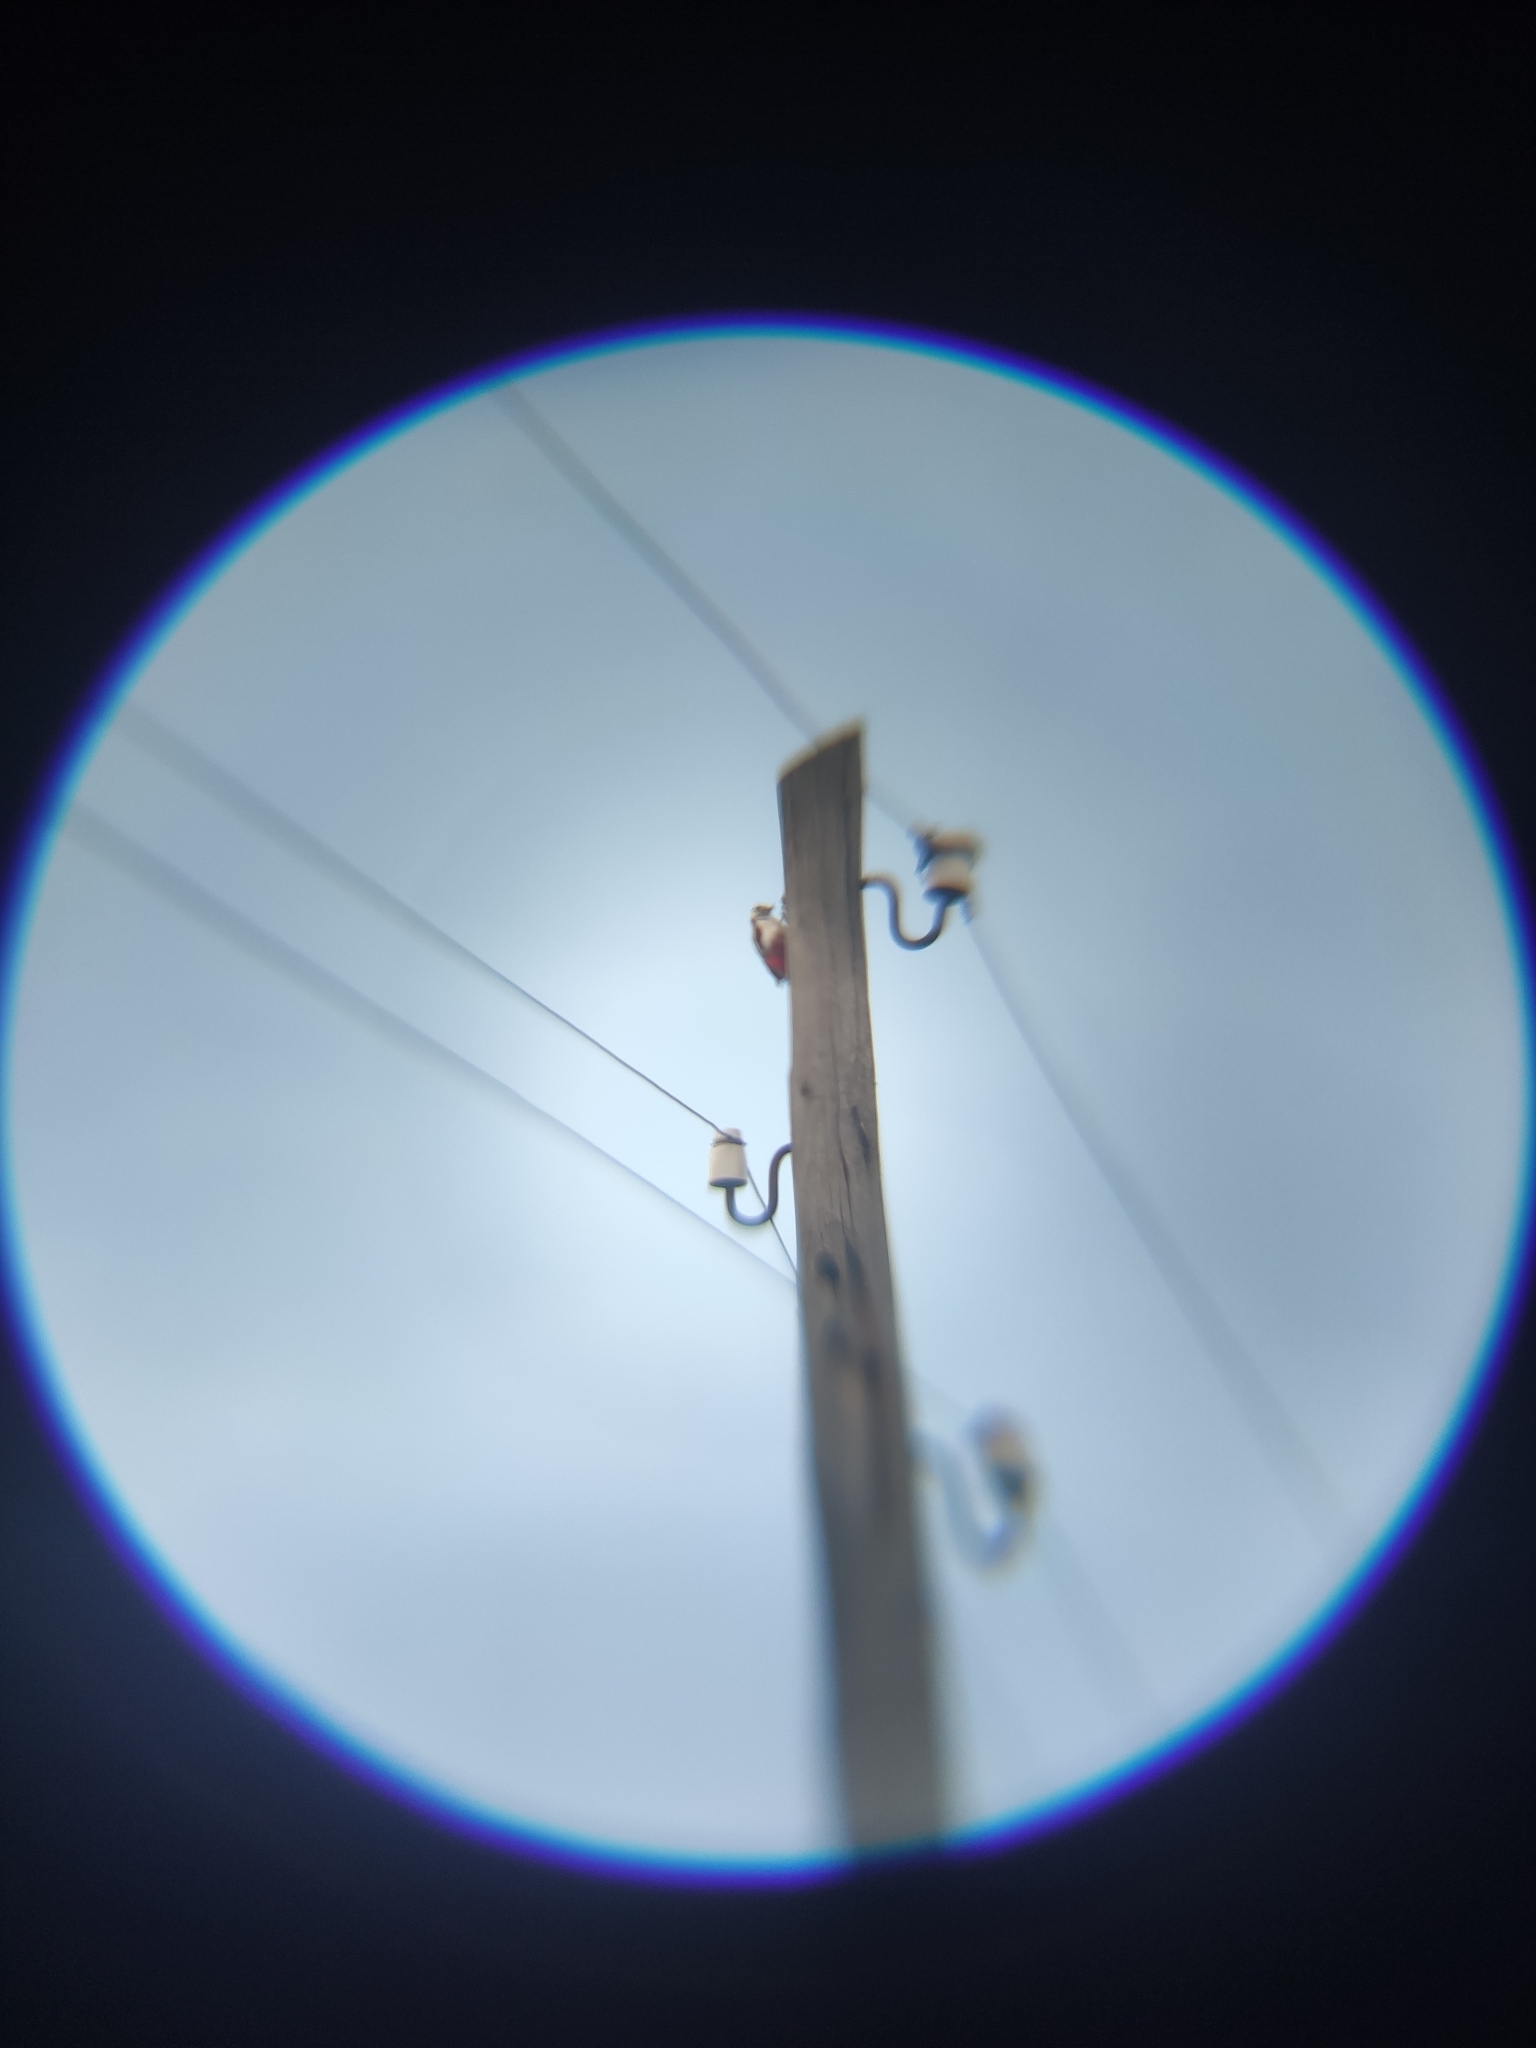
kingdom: Animalia
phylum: Chordata
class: Aves
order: Piciformes
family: Picidae
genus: Dendrocopos
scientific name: Dendrocopos major
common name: Great spotted woodpecker
